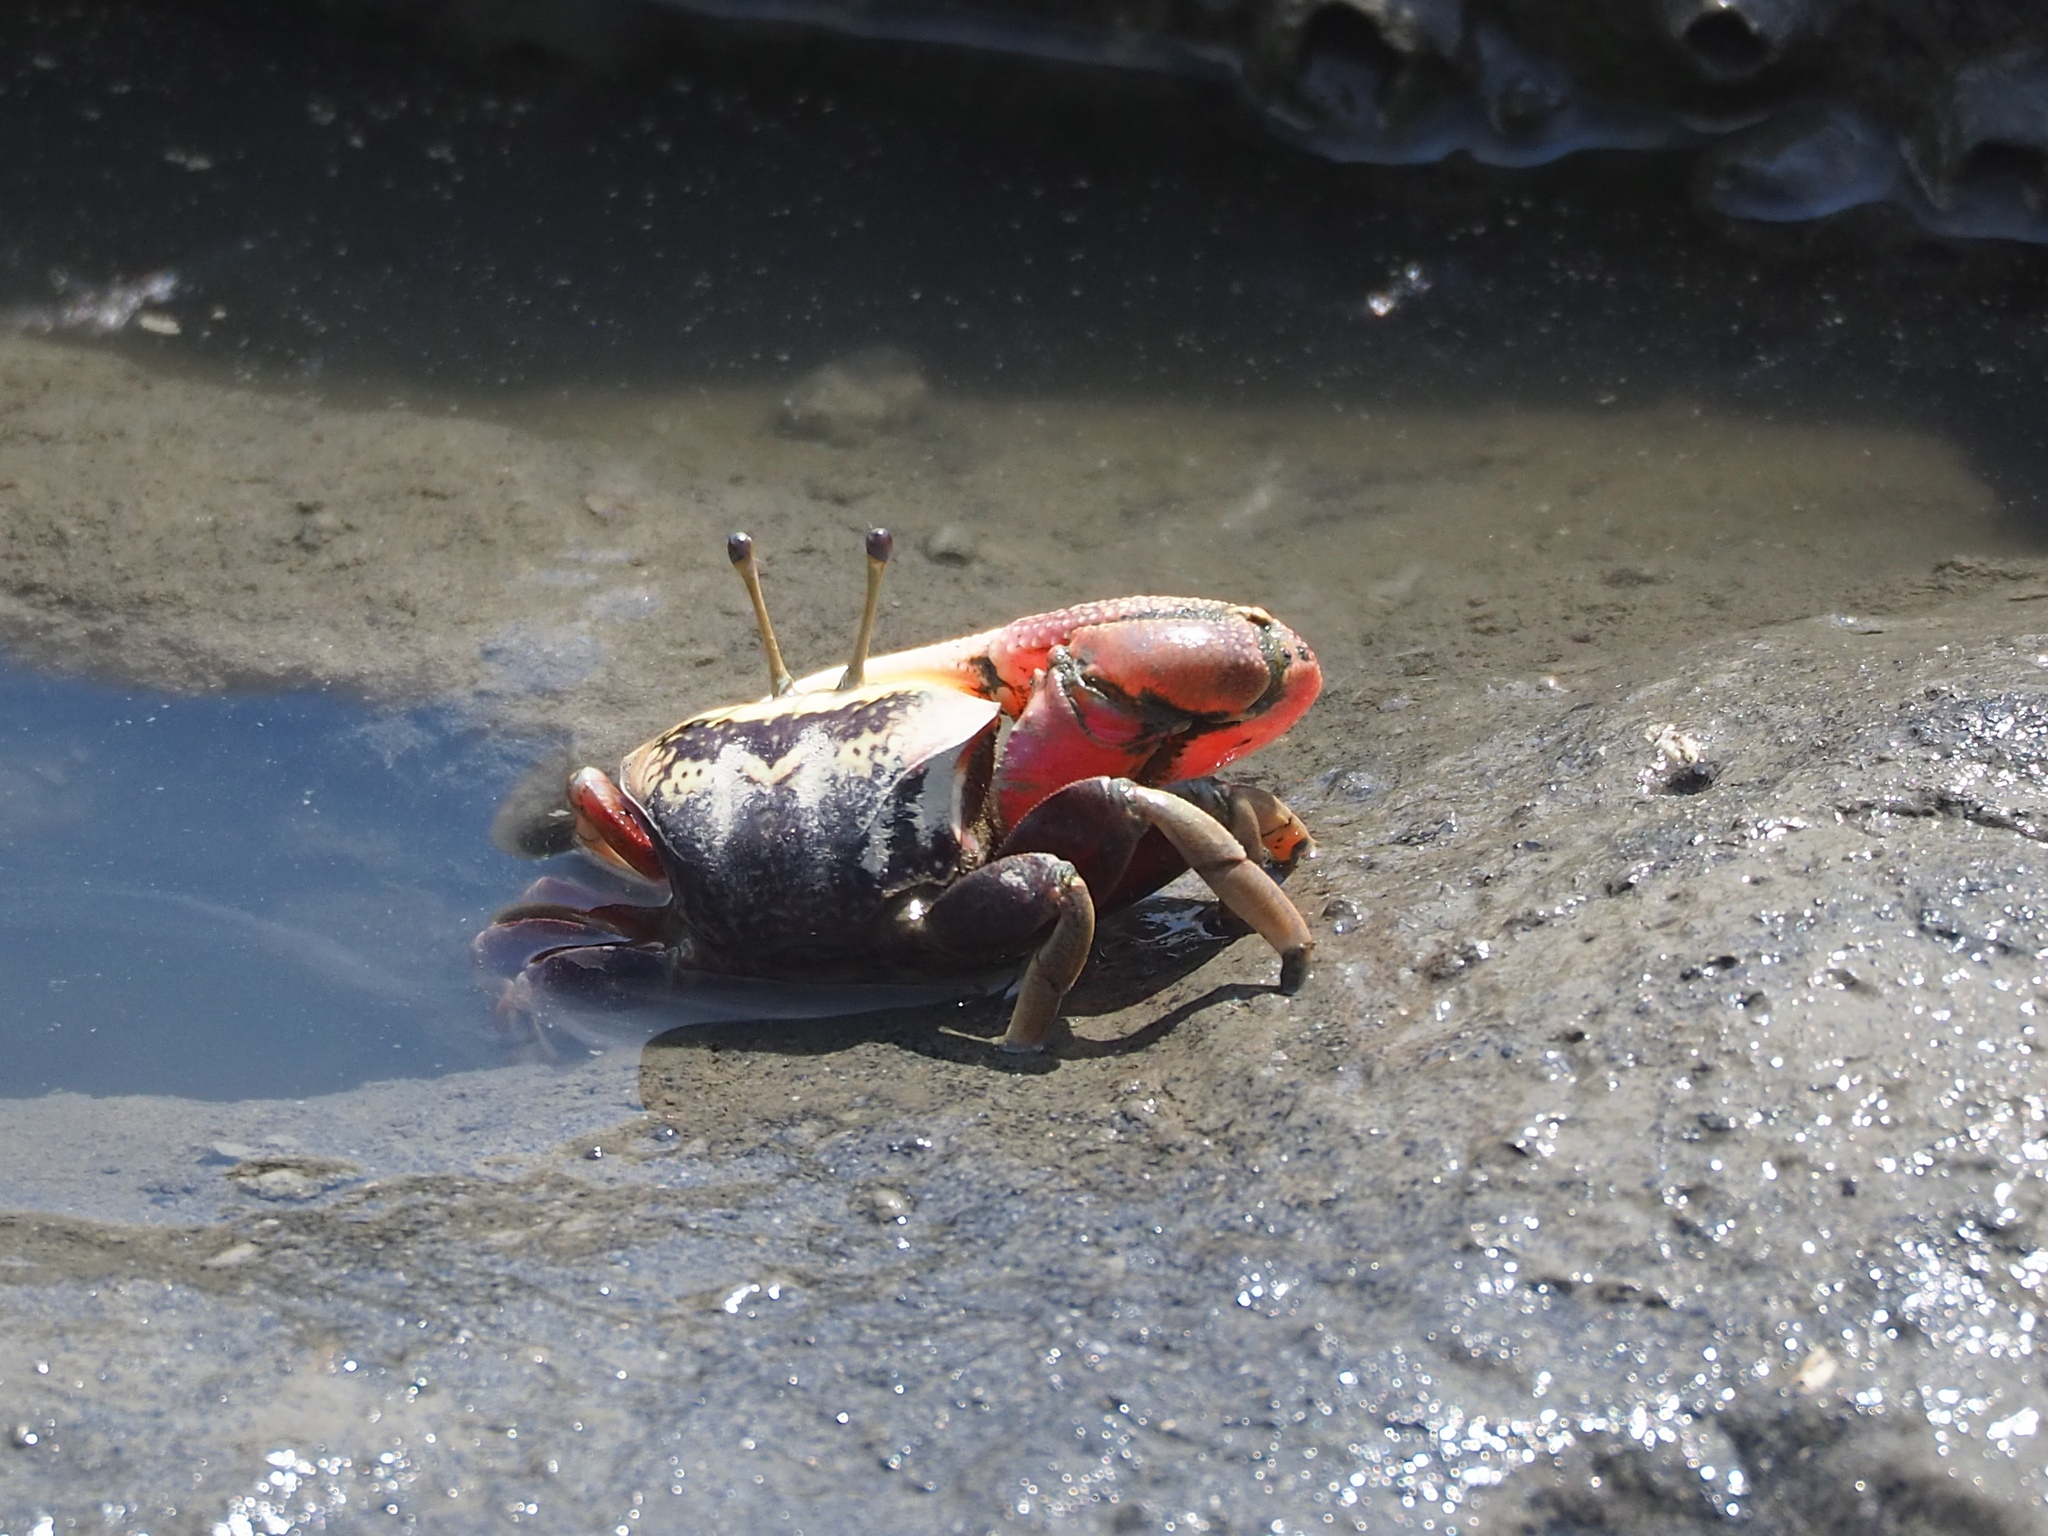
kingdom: Animalia
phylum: Arthropoda
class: Malacostraca
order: Decapoda
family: Ocypodidae
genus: Tubuca
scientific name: Tubuca arcuata
